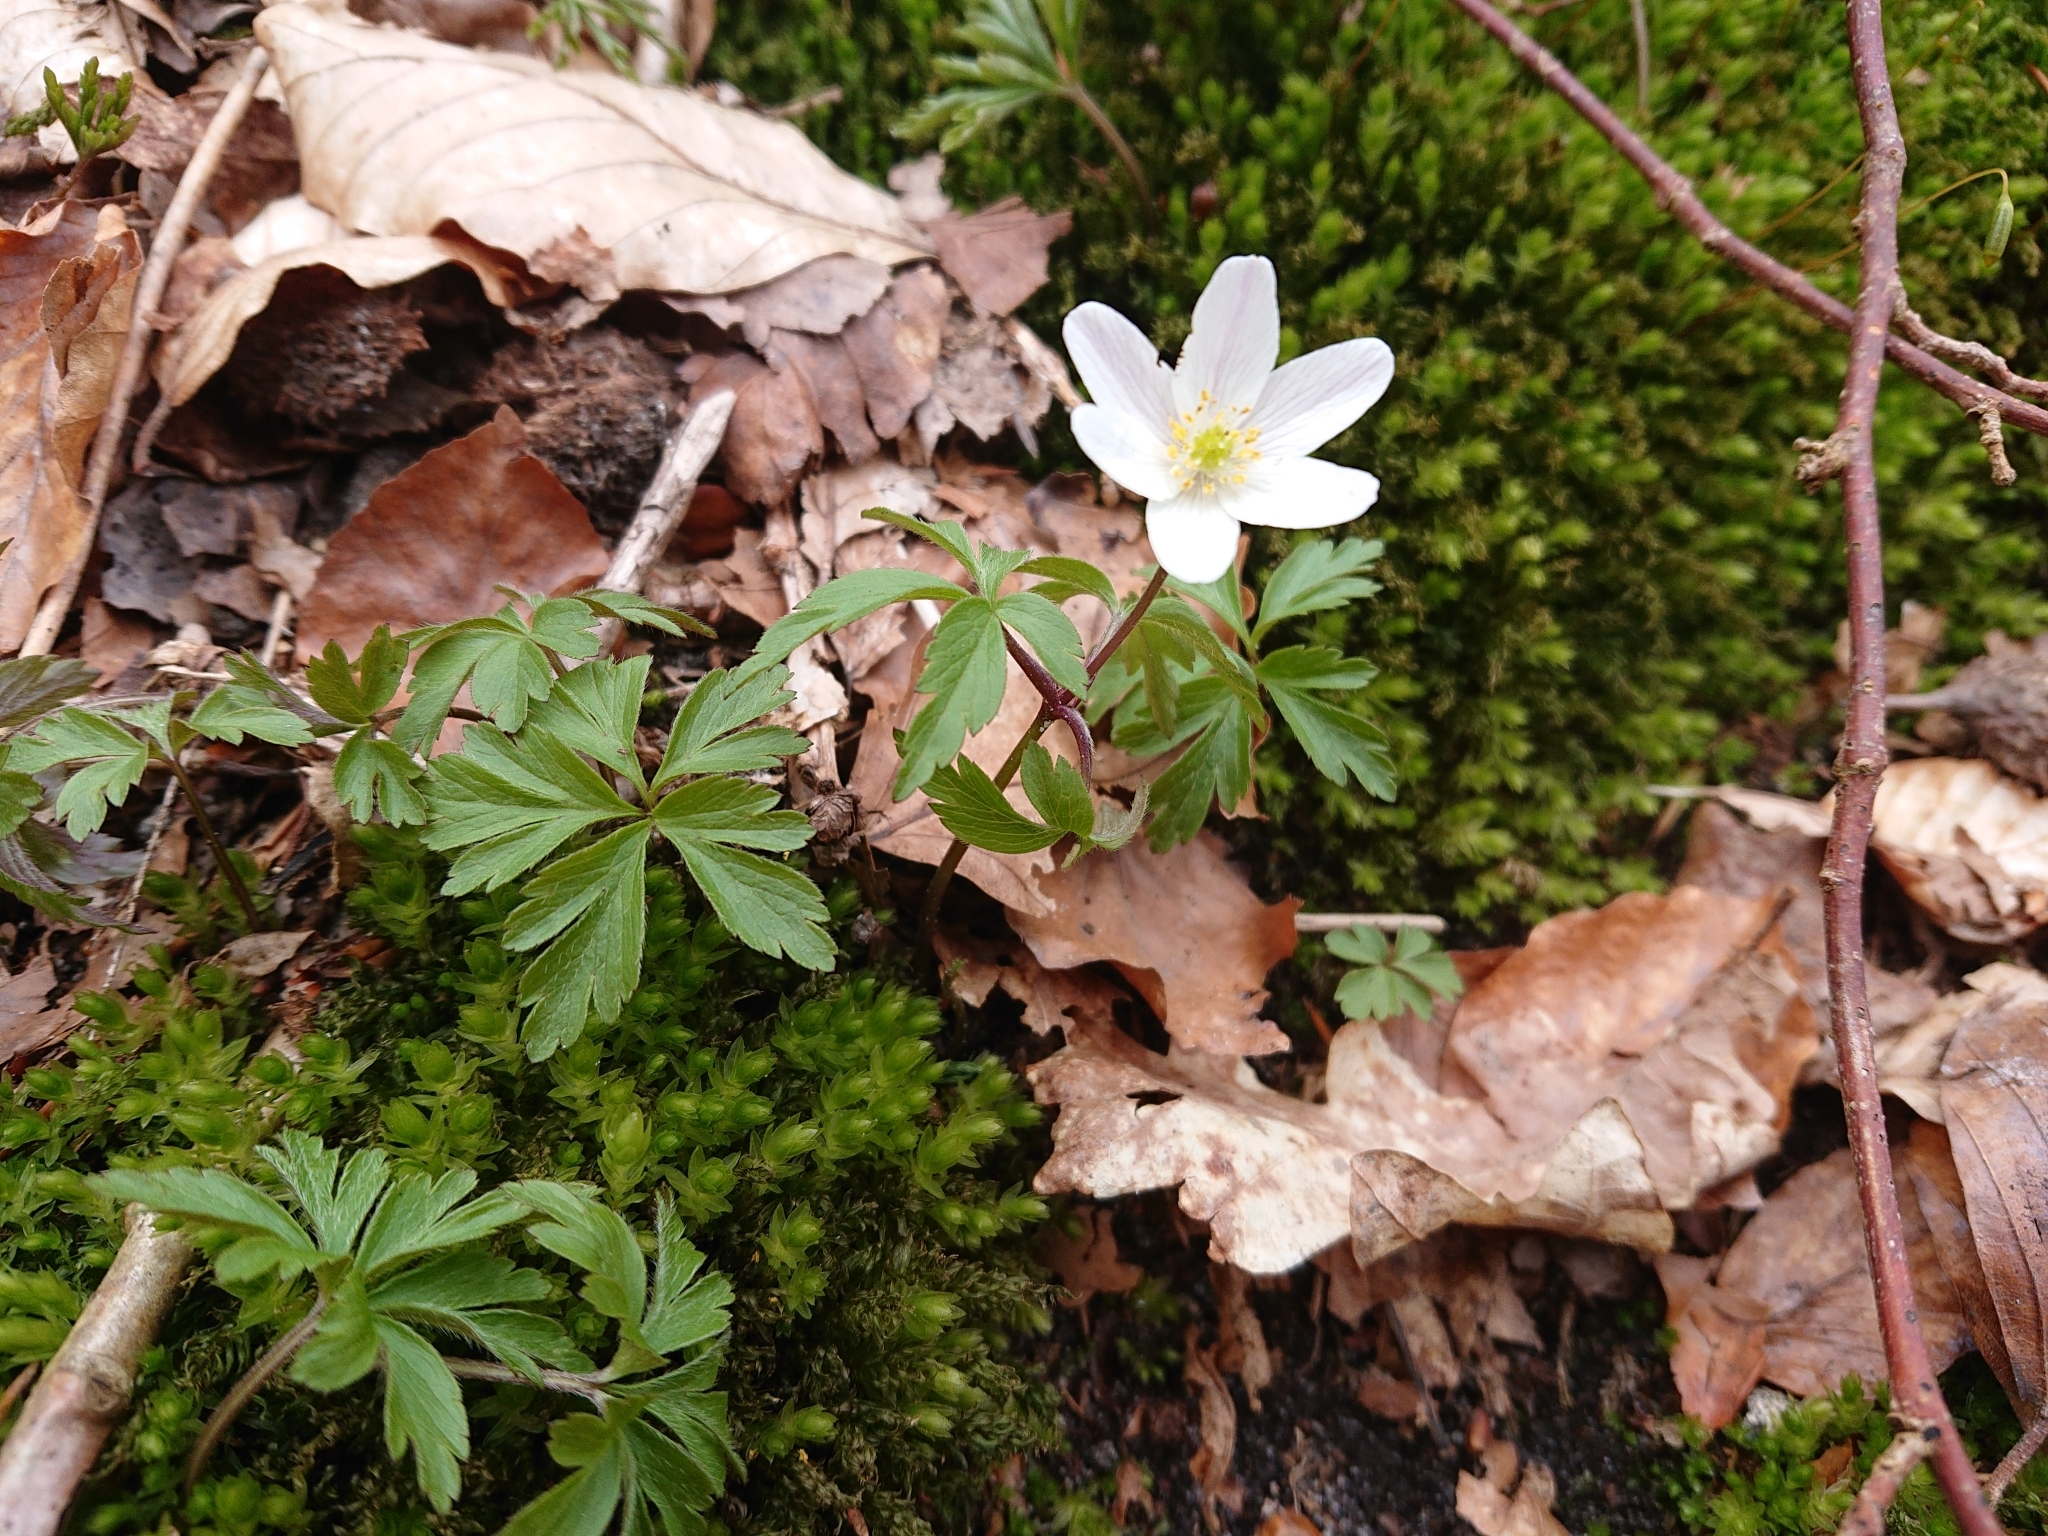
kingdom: Plantae
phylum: Tracheophyta
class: Magnoliopsida
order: Ranunculales
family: Ranunculaceae
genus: Anemone
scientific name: Anemone nemorosa
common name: Wood anemone
